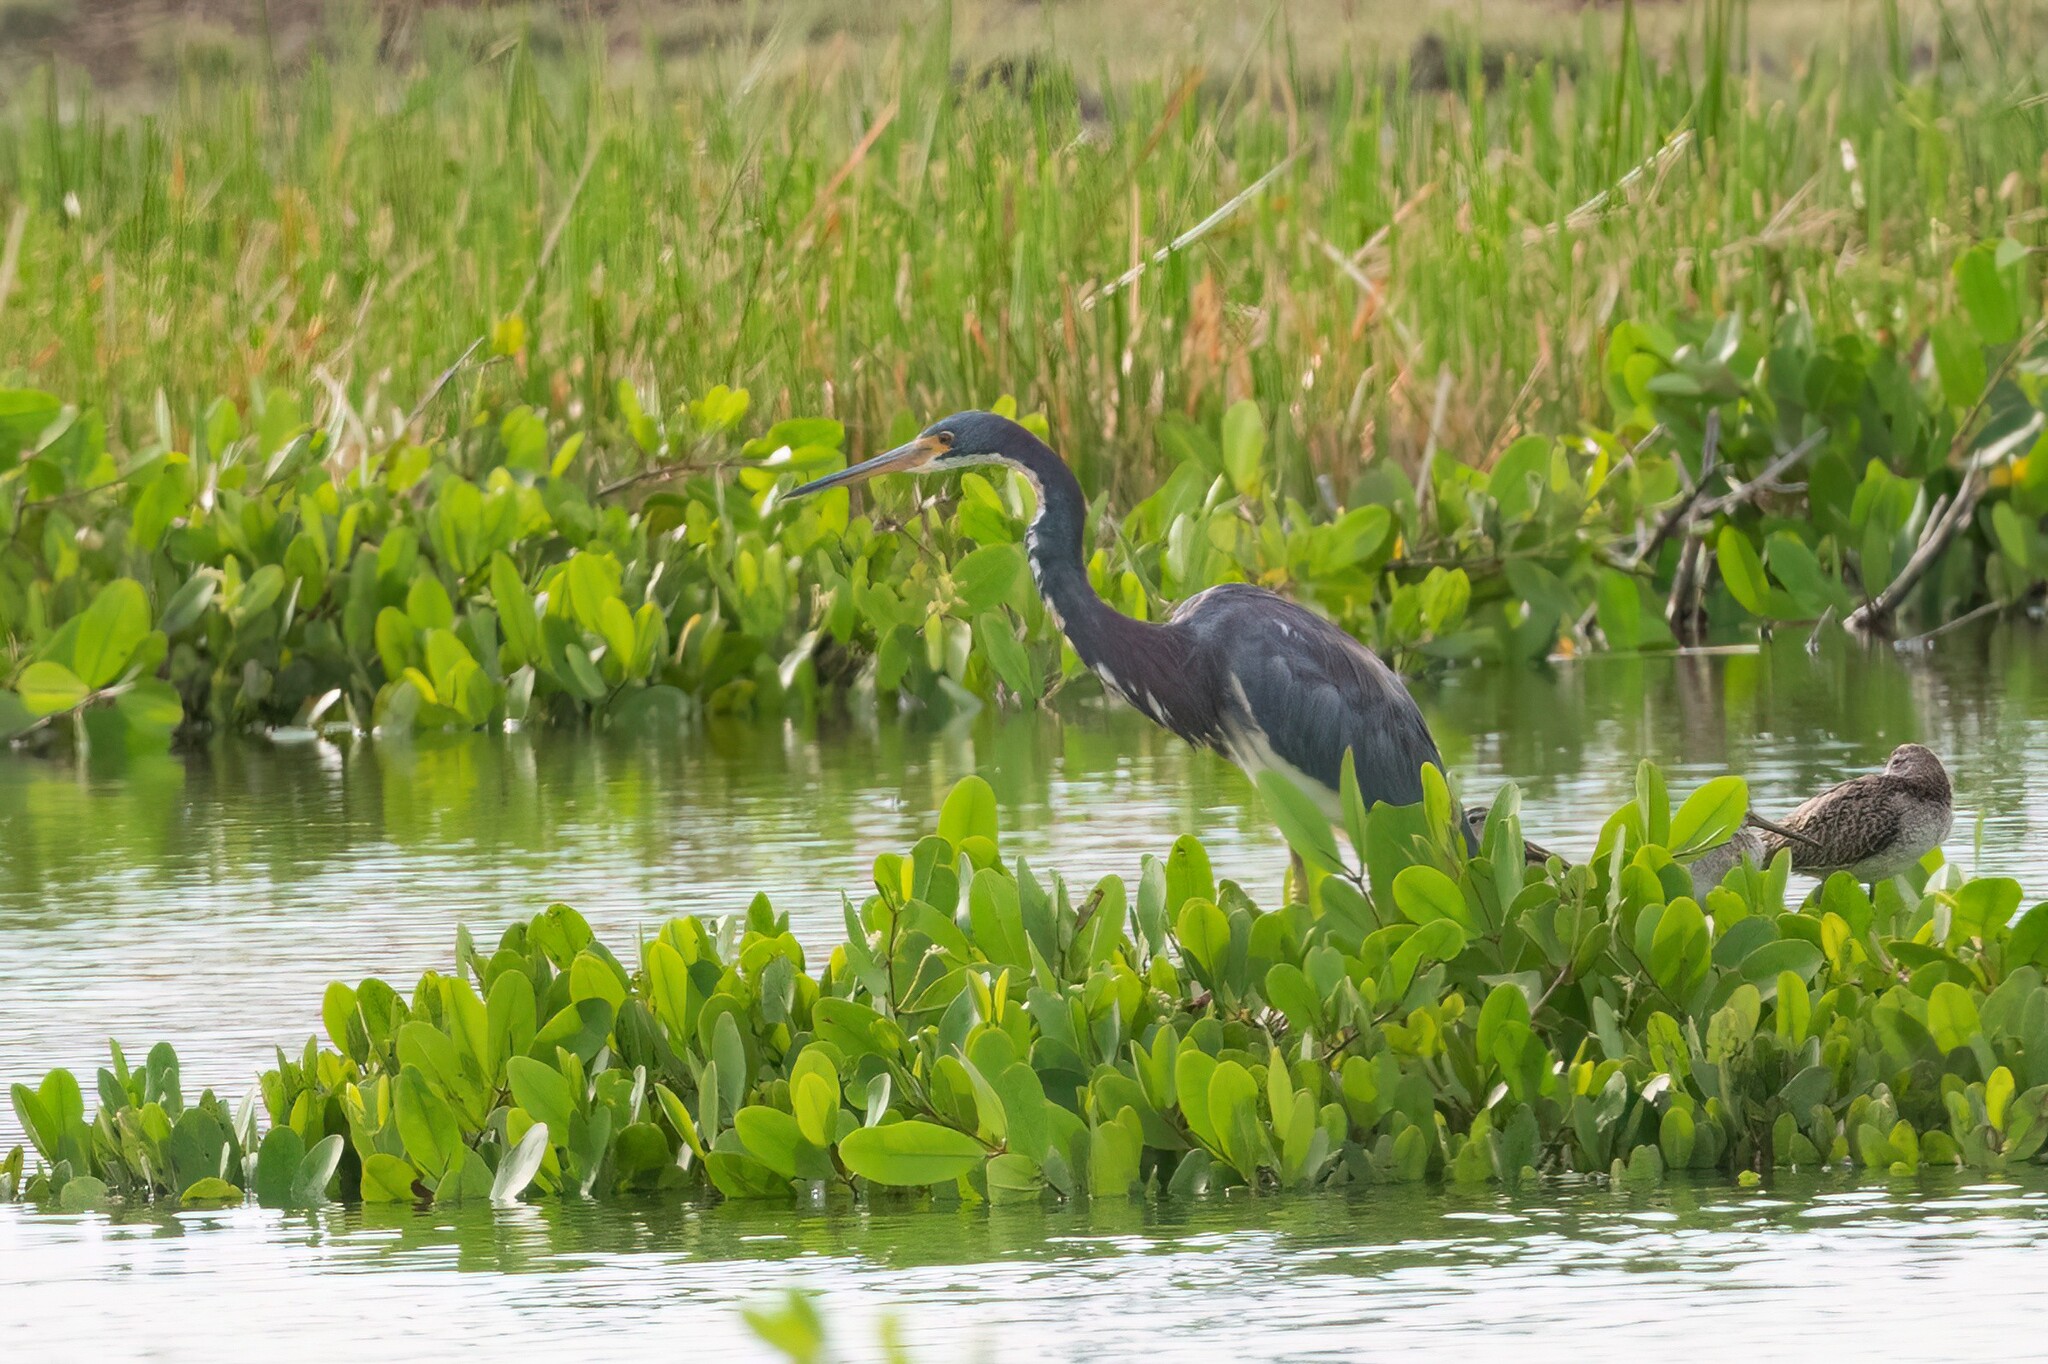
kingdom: Animalia
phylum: Chordata
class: Aves
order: Pelecaniformes
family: Ardeidae
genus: Egretta
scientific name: Egretta tricolor
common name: Tricolored heron
